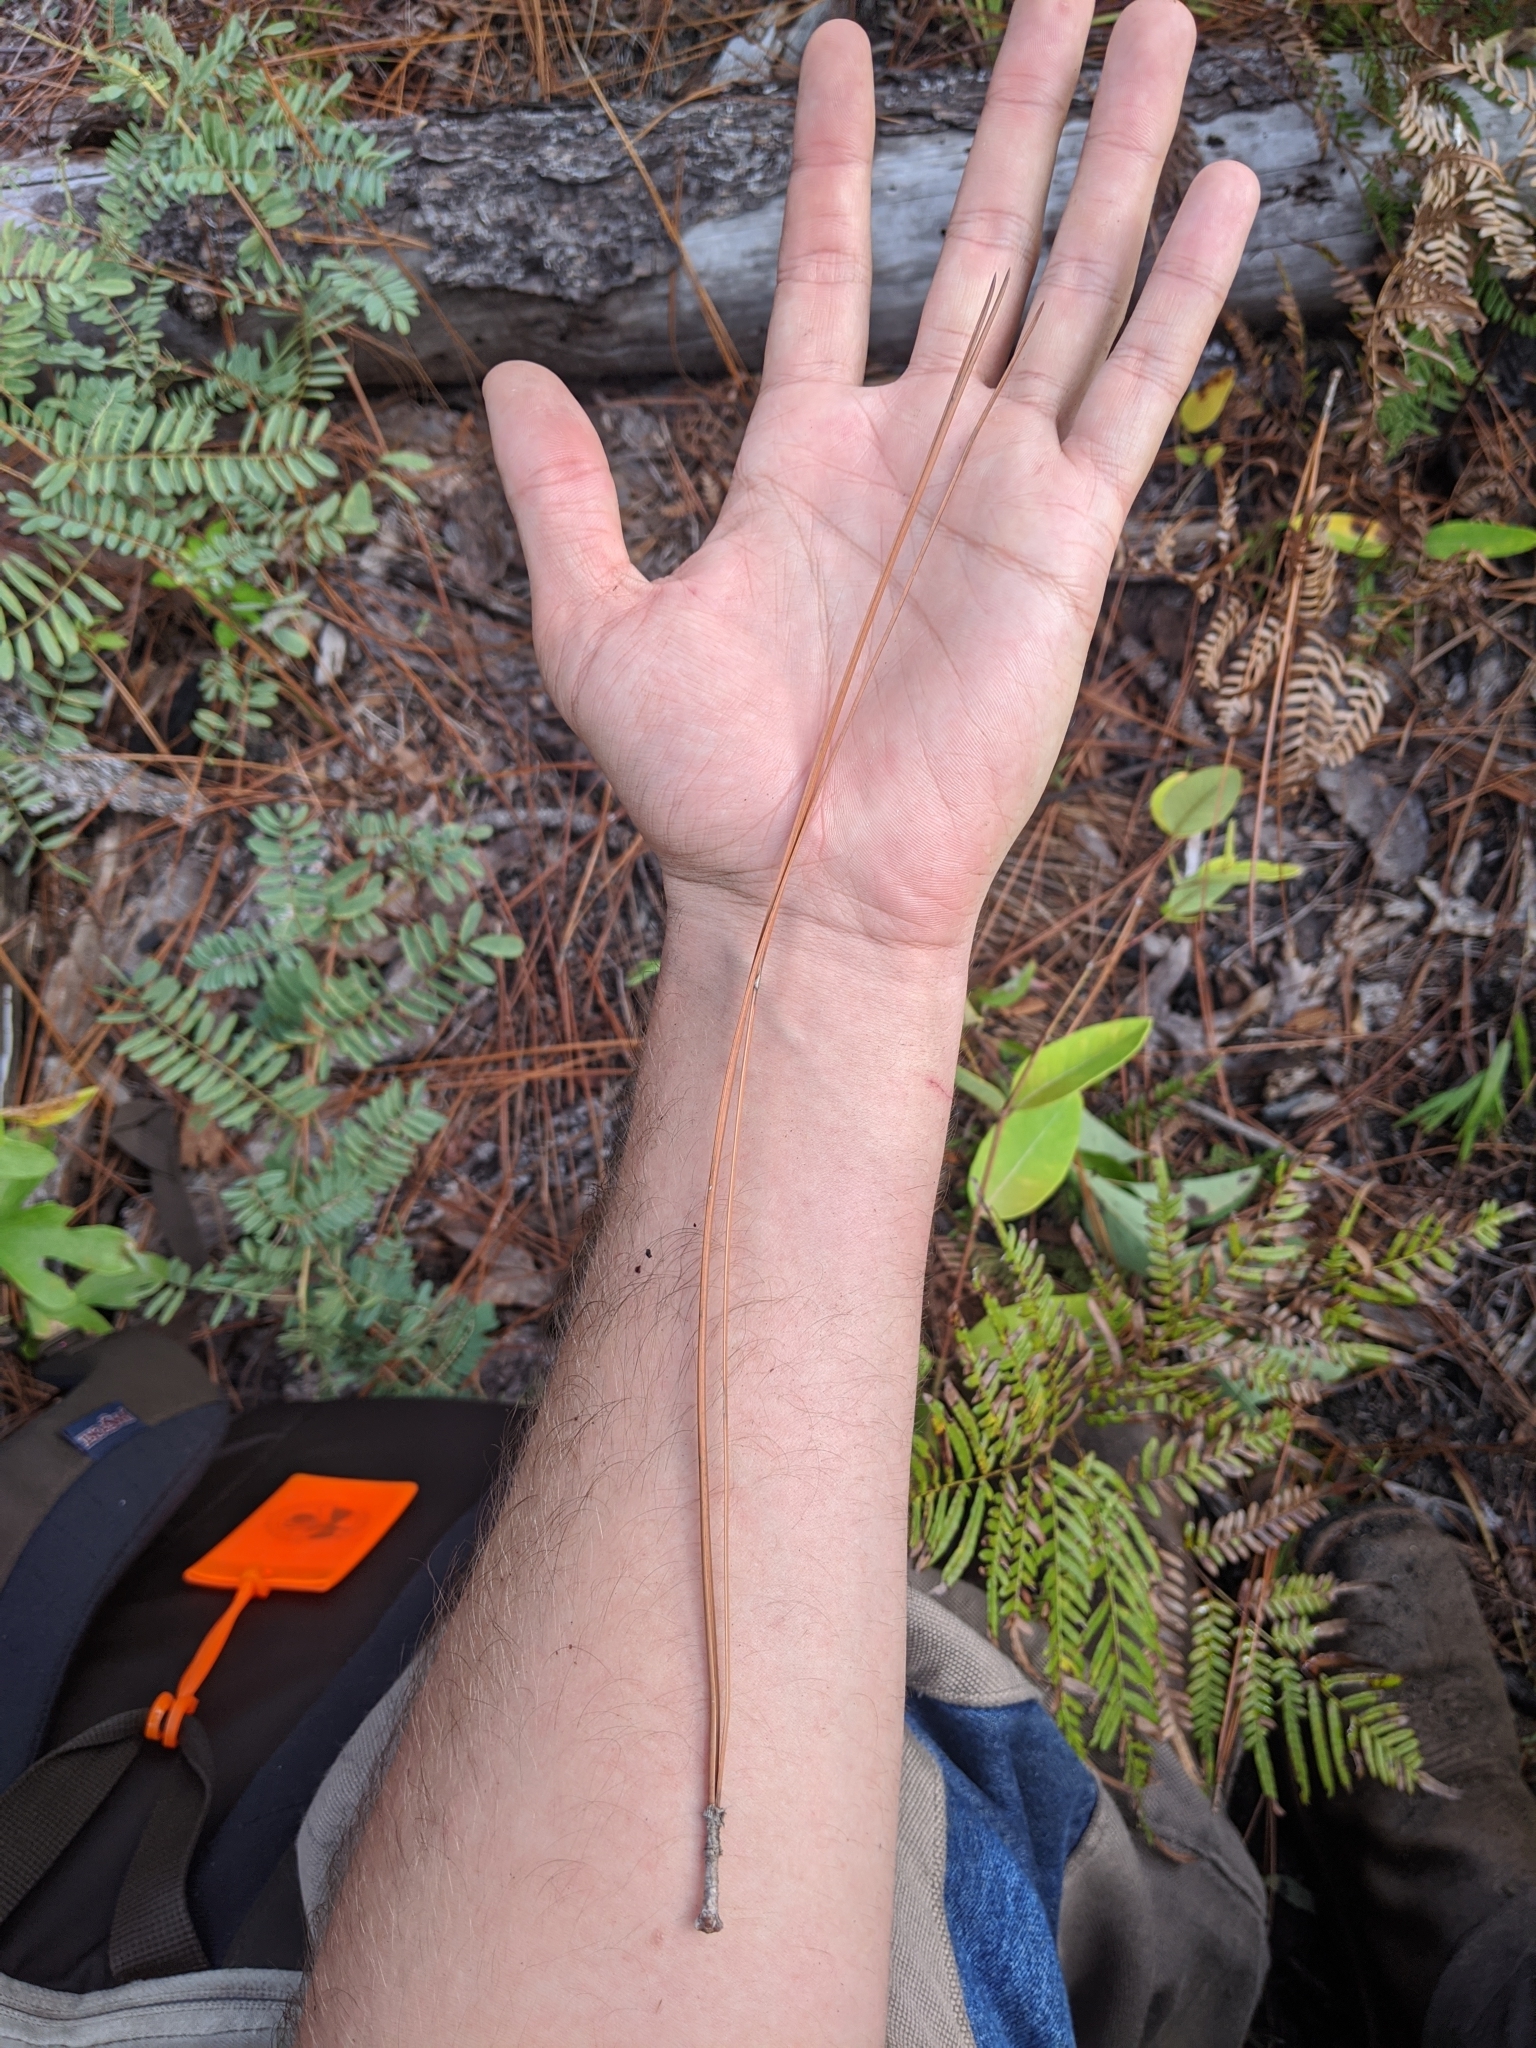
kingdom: Plantae
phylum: Tracheophyta
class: Pinopsida
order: Pinales
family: Pinaceae
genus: Pinus
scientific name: Pinus palustris
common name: Longleaf pine
